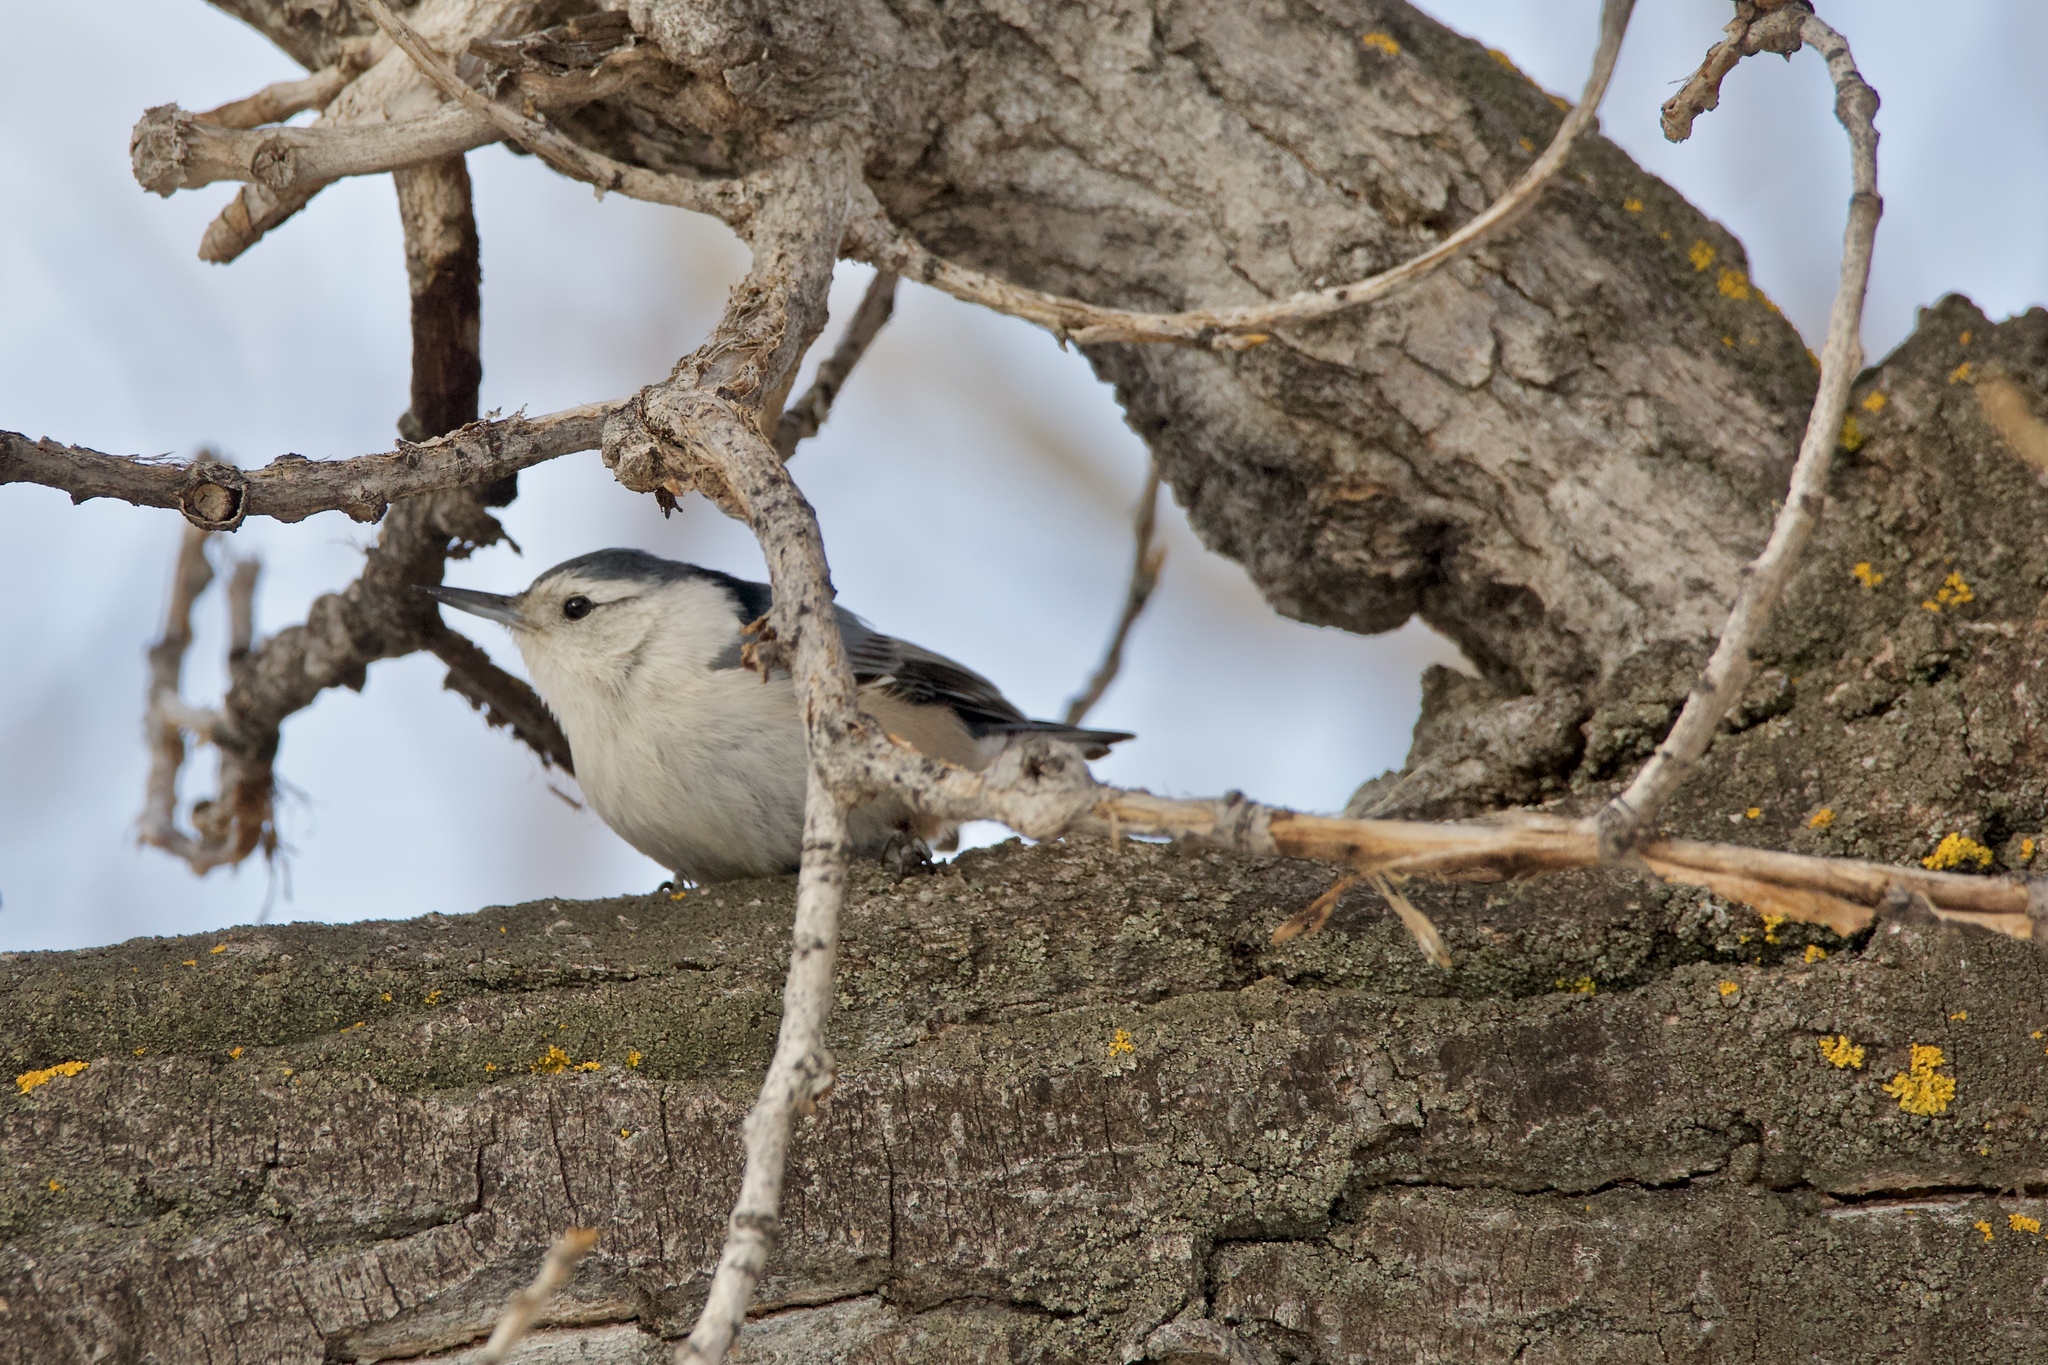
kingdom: Animalia
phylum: Chordata
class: Aves
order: Passeriformes
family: Sittidae
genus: Sitta
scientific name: Sitta carolinensis
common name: White-breasted nuthatch
